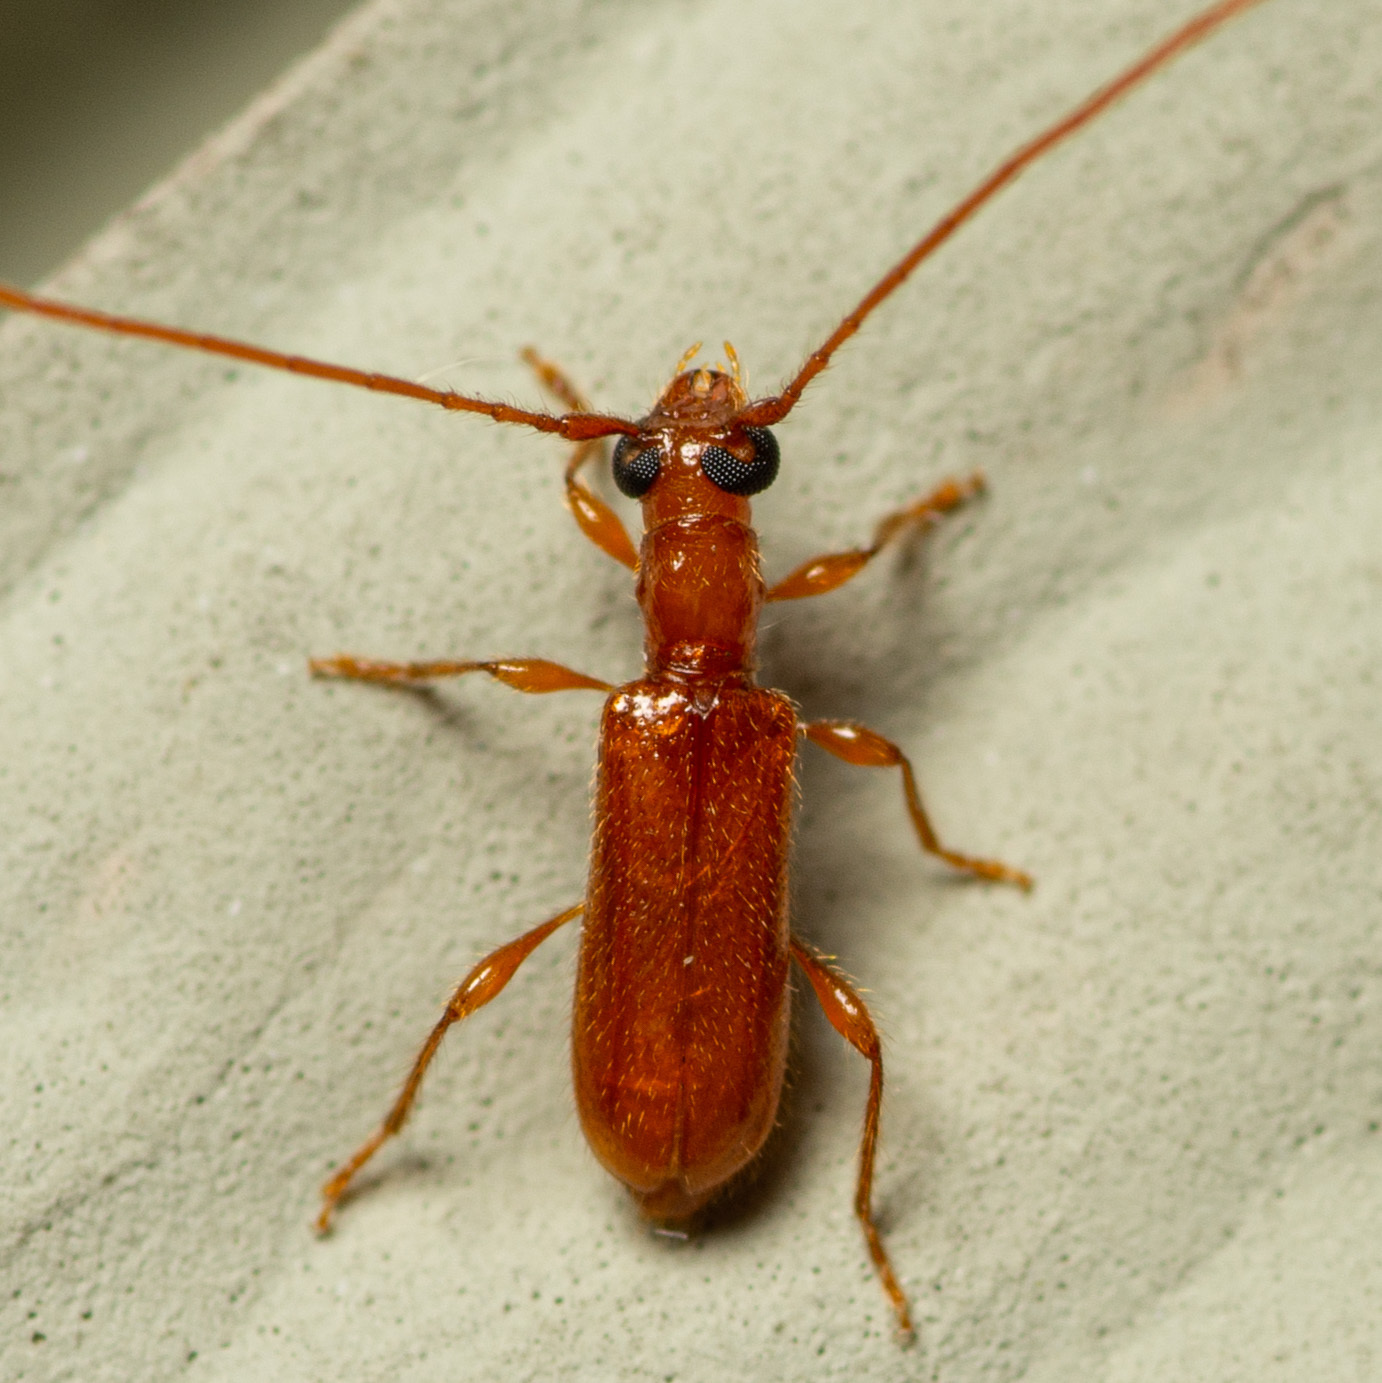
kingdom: Animalia
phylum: Arthropoda
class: Insecta
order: Coleoptera
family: Cerambycidae
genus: Obrium
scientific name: Obrium rufulum
